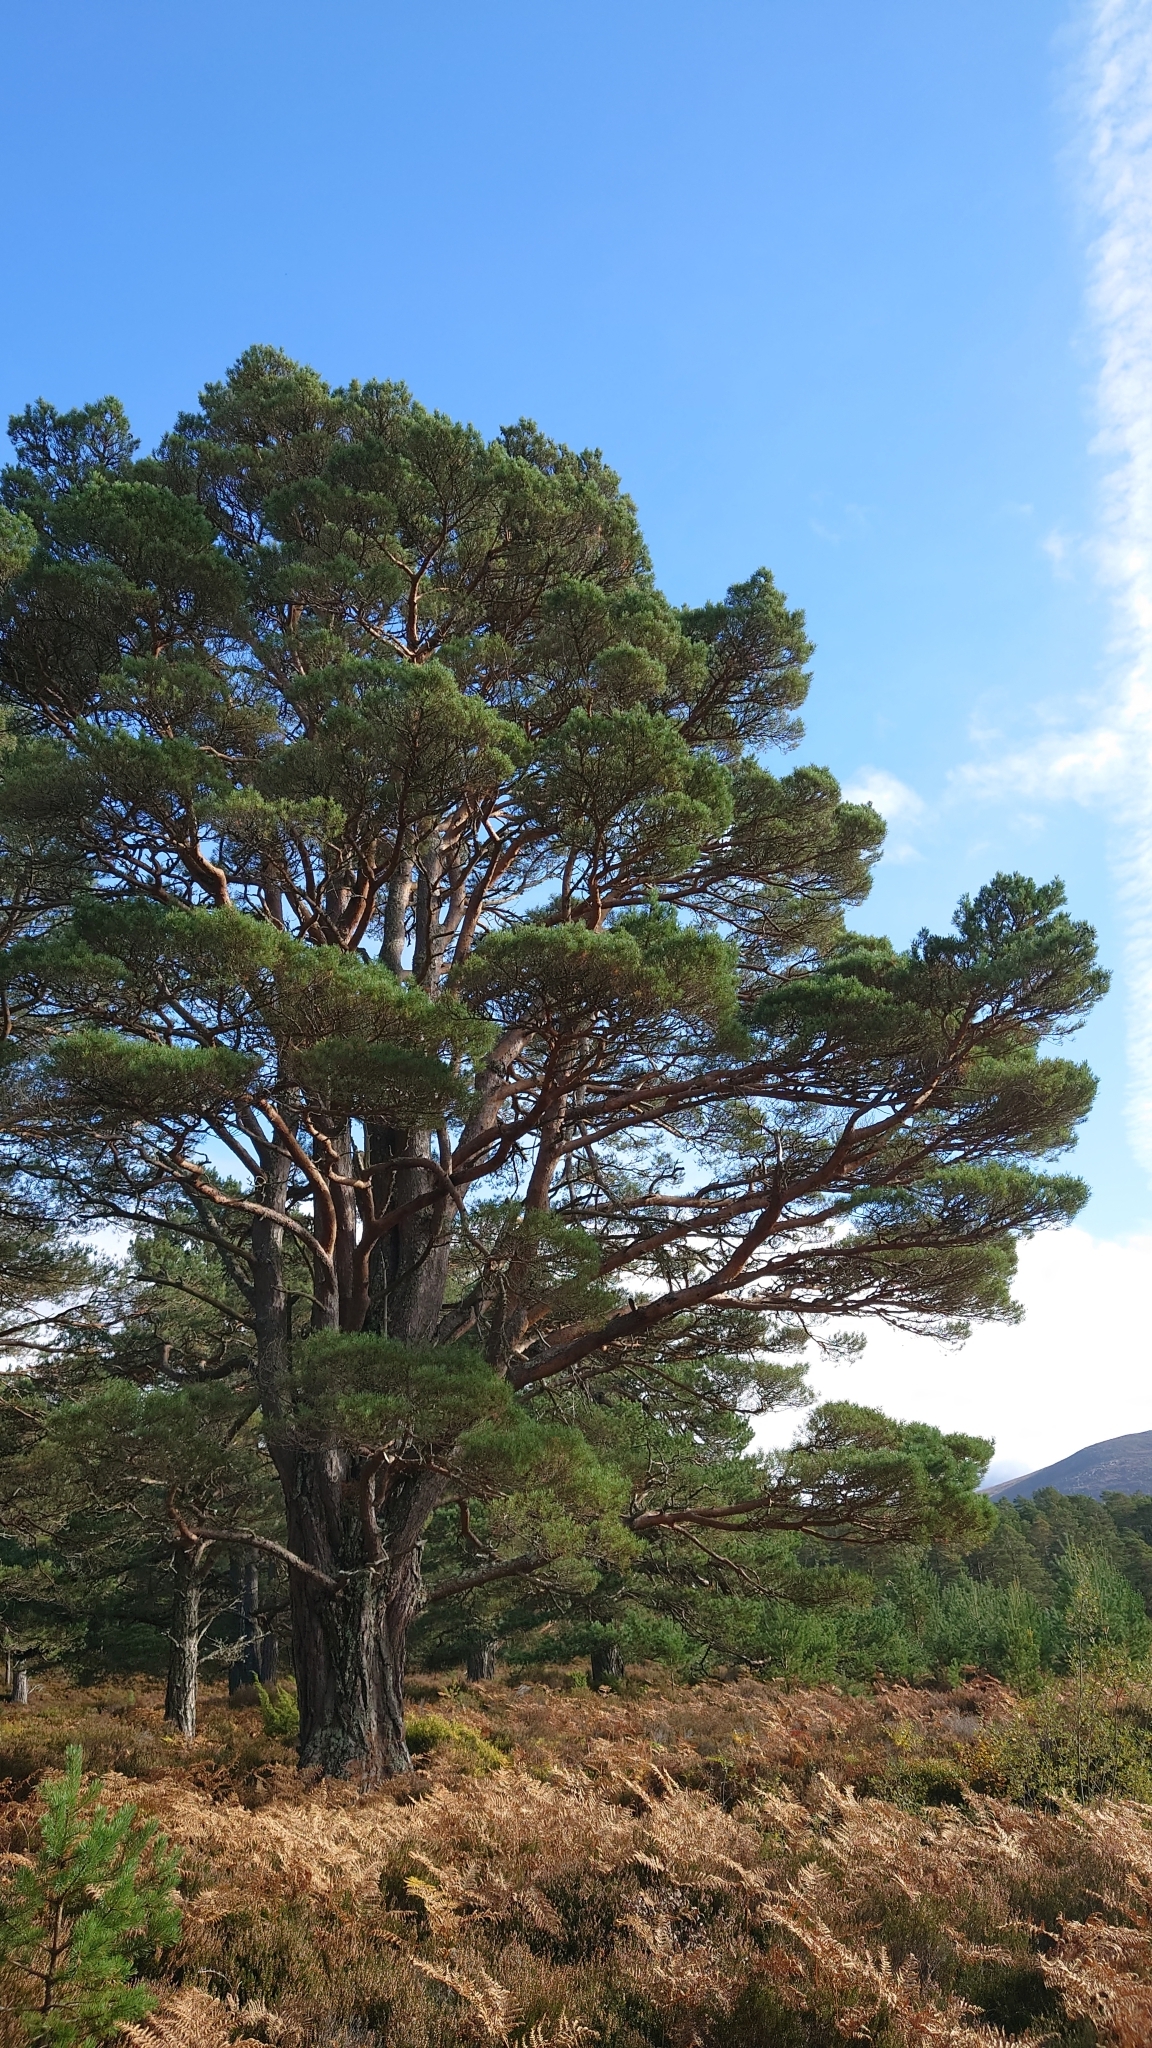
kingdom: Plantae
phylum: Tracheophyta
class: Pinopsida
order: Pinales
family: Pinaceae
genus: Pinus
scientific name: Pinus sylvestris
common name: Scots pine
